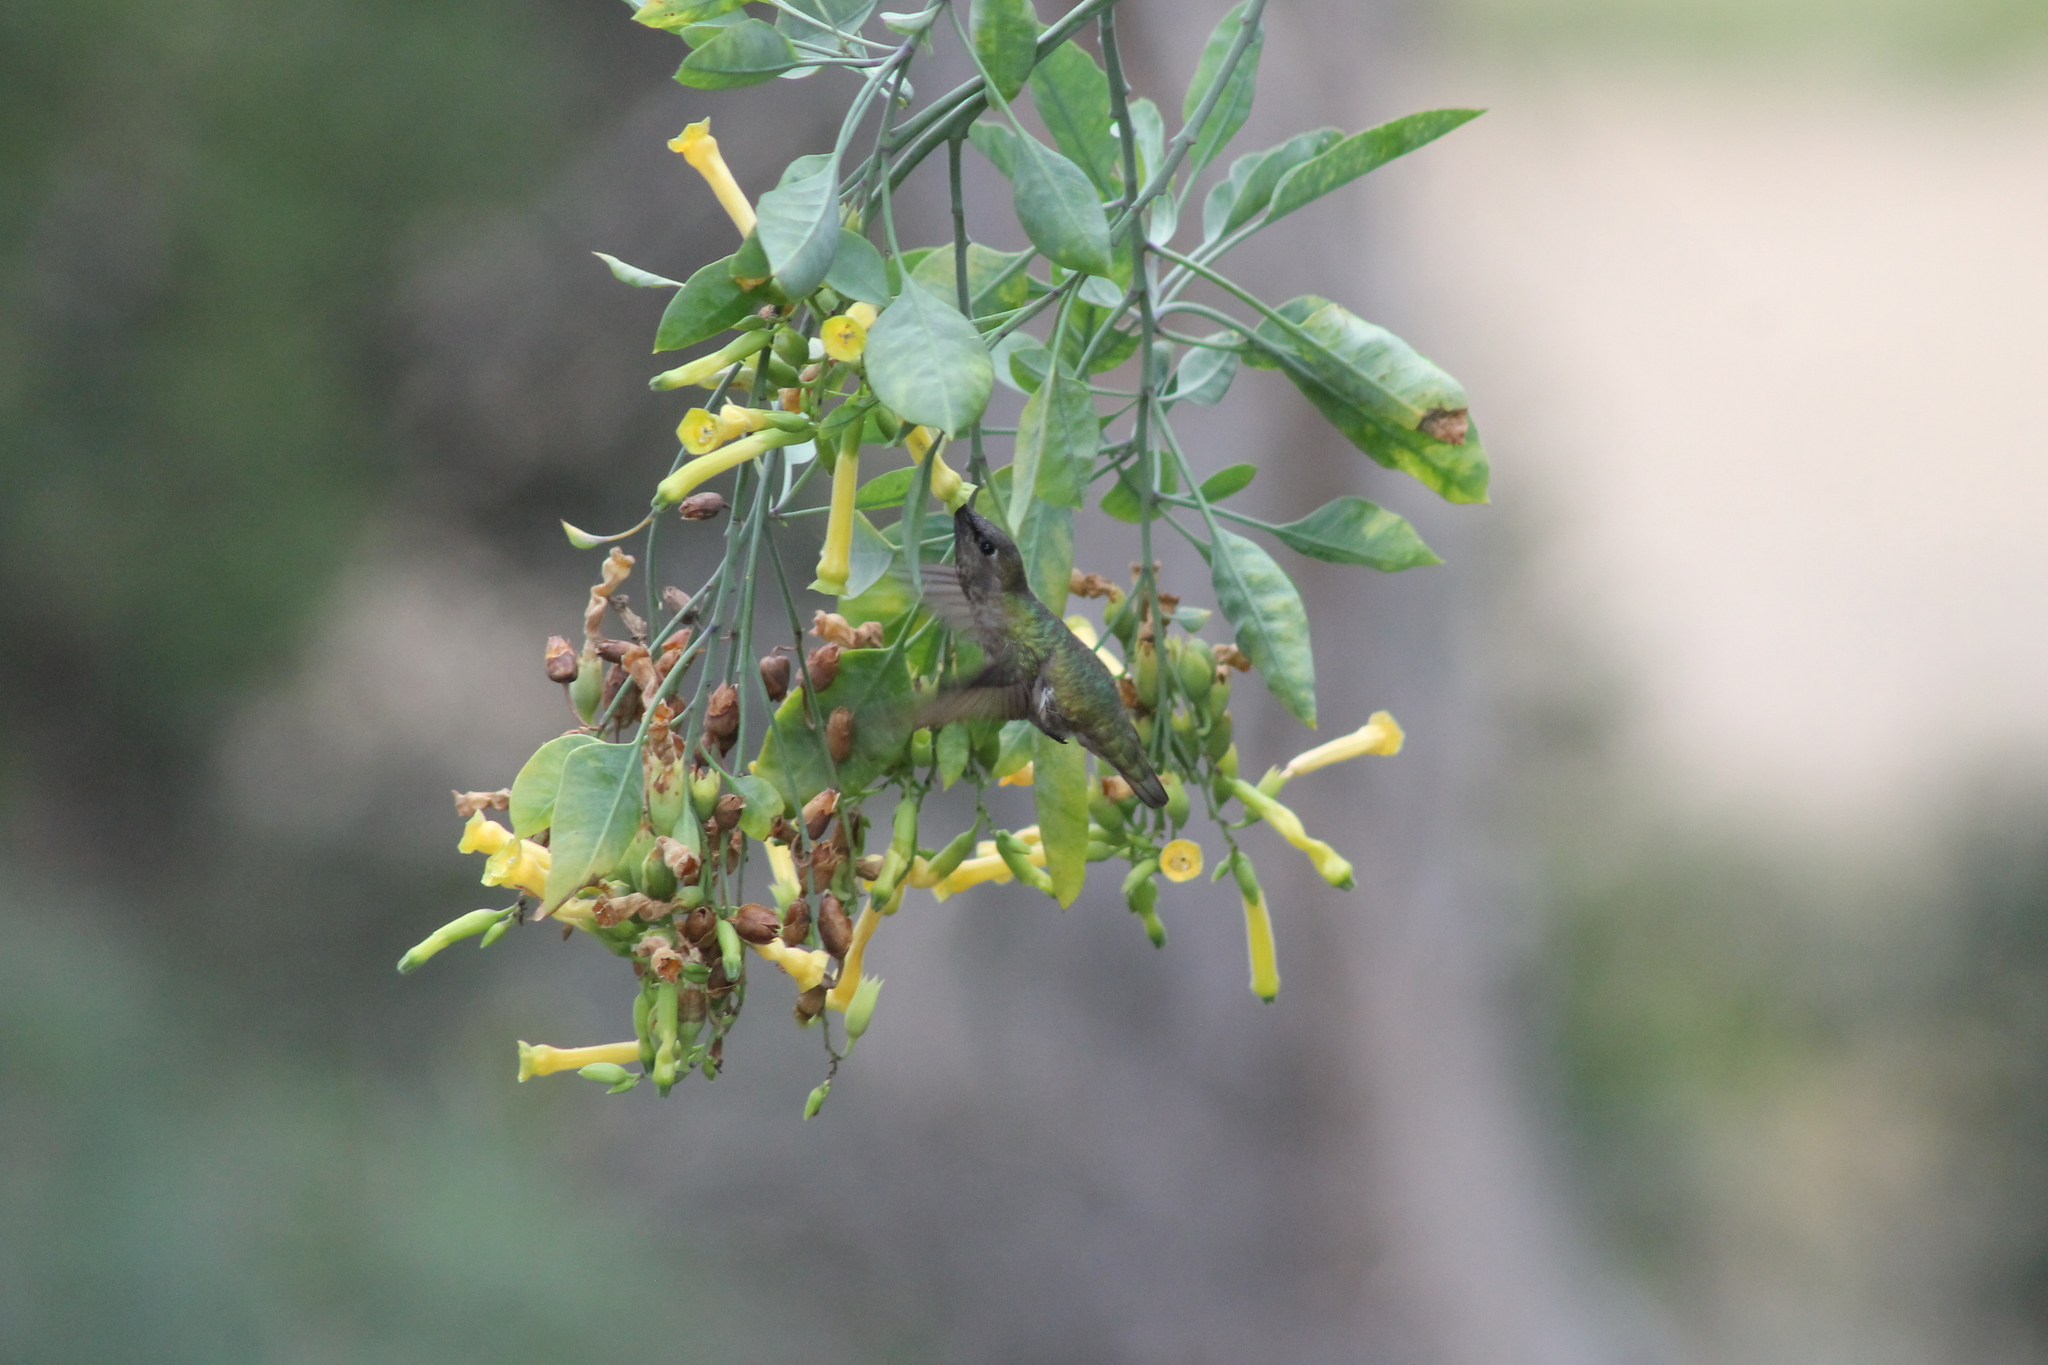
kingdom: Animalia
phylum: Chordata
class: Aves
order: Apodiformes
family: Trochilidae
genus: Calypte
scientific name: Calypte anna
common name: Anna's hummingbird
